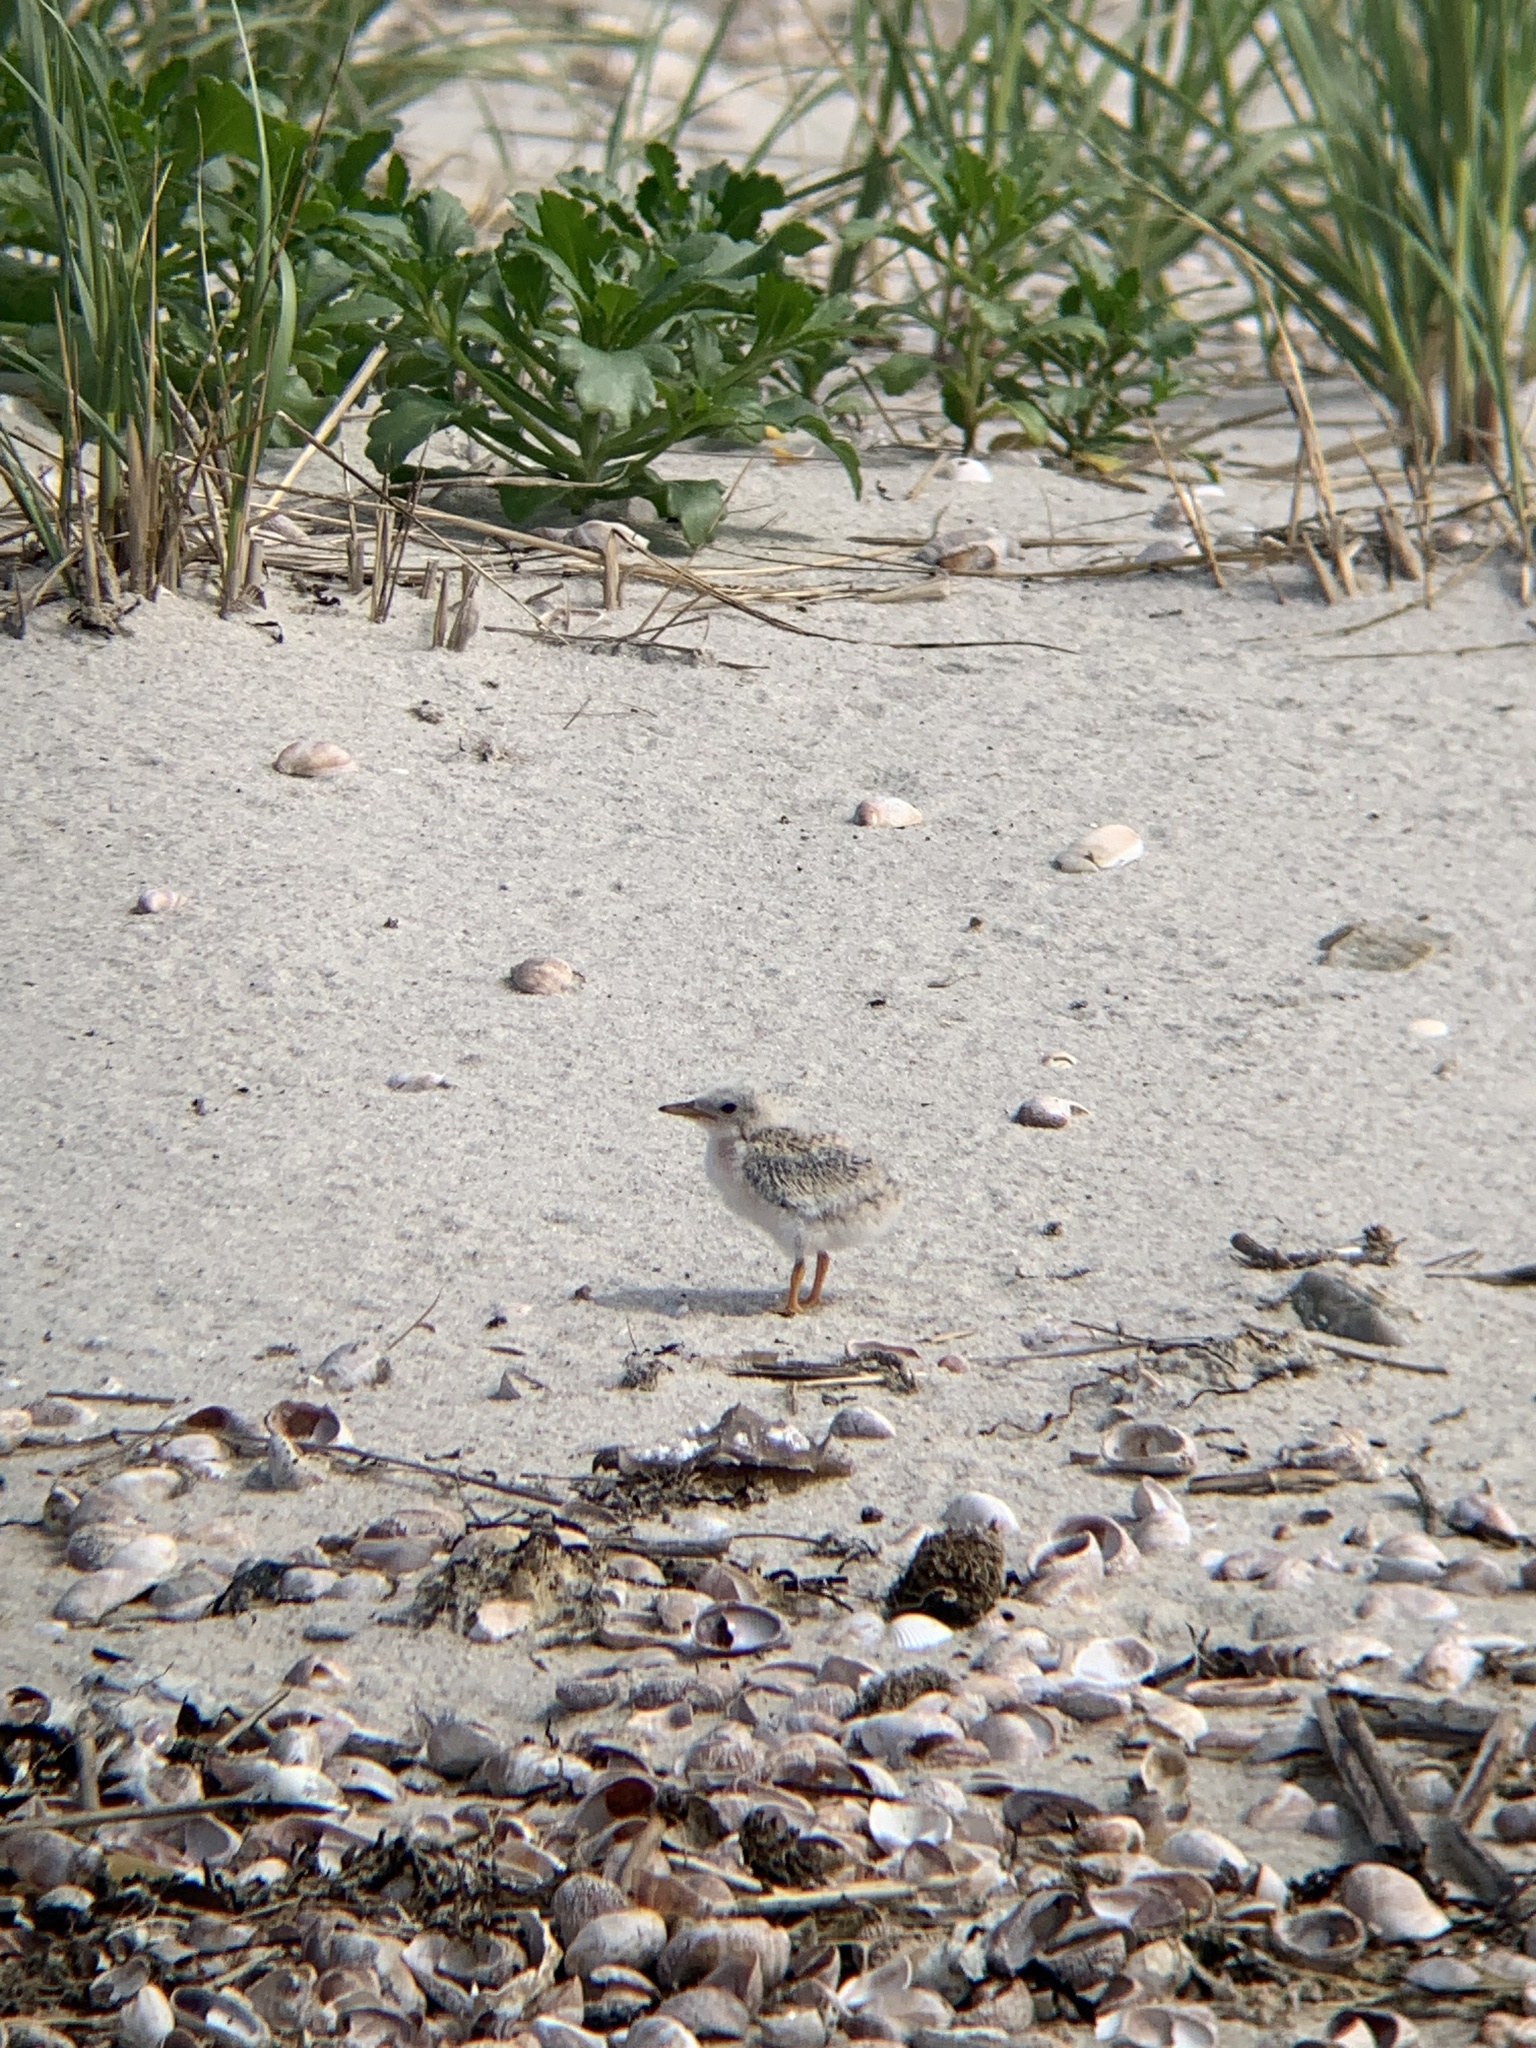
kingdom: Animalia
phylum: Chordata
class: Aves
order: Charadriiformes
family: Laridae
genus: Sternula
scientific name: Sternula antillarum
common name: Least tern
